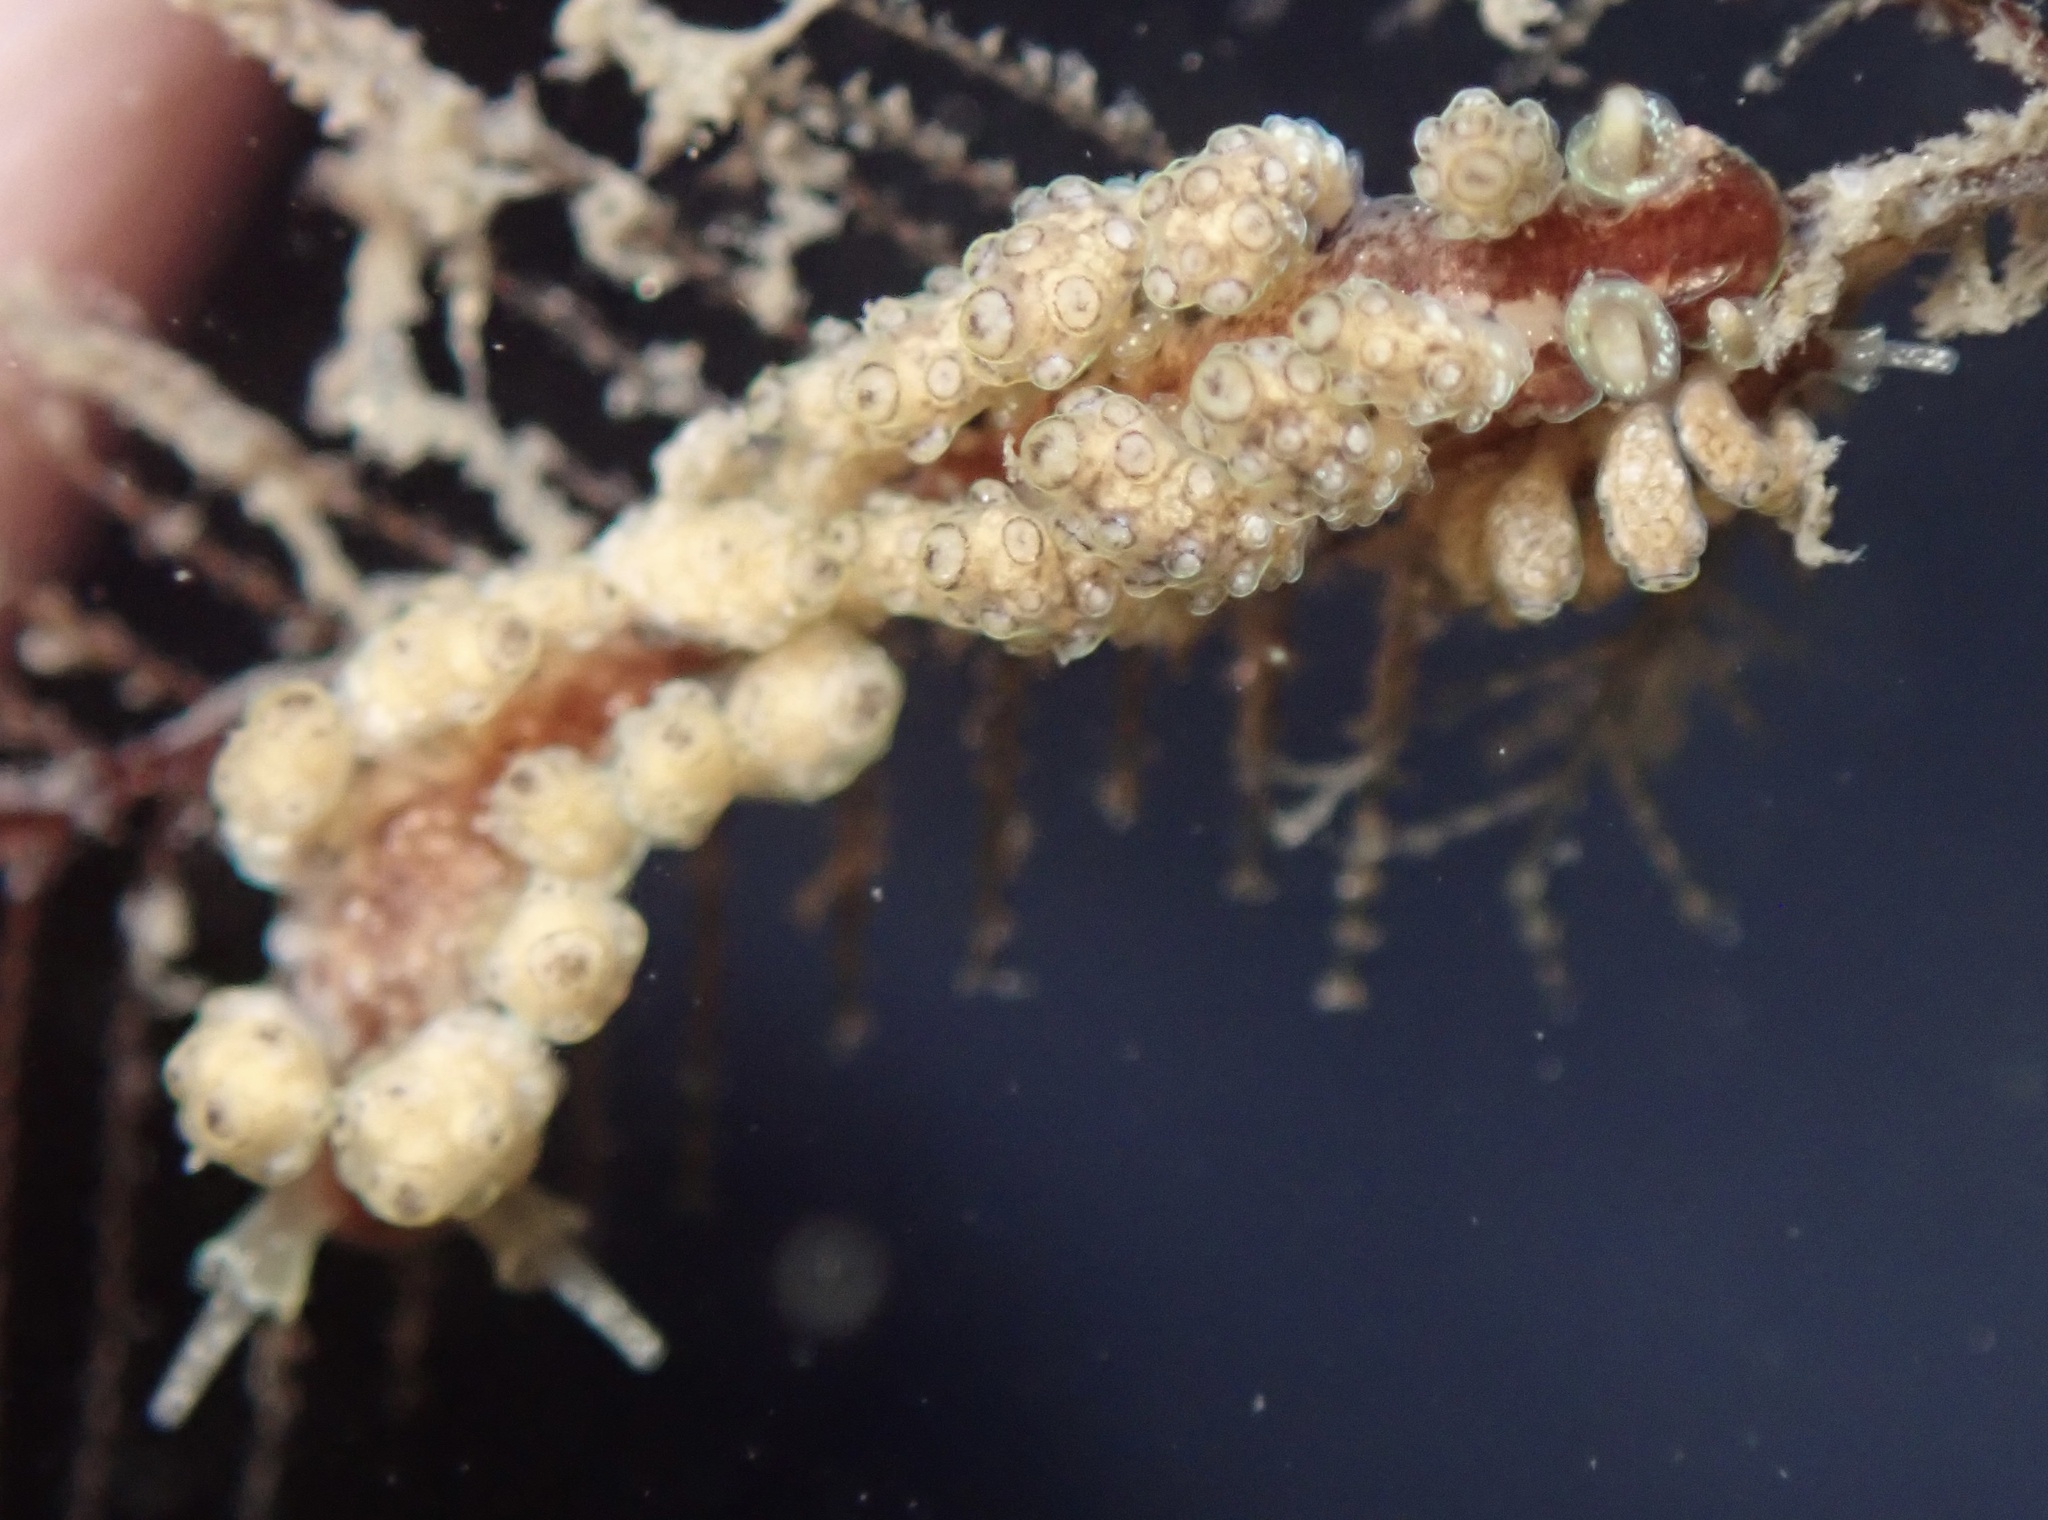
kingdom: Animalia
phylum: Mollusca
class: Gastropoda
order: Nudibranchia
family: Dotidae
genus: Doto
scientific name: Doto lancei
